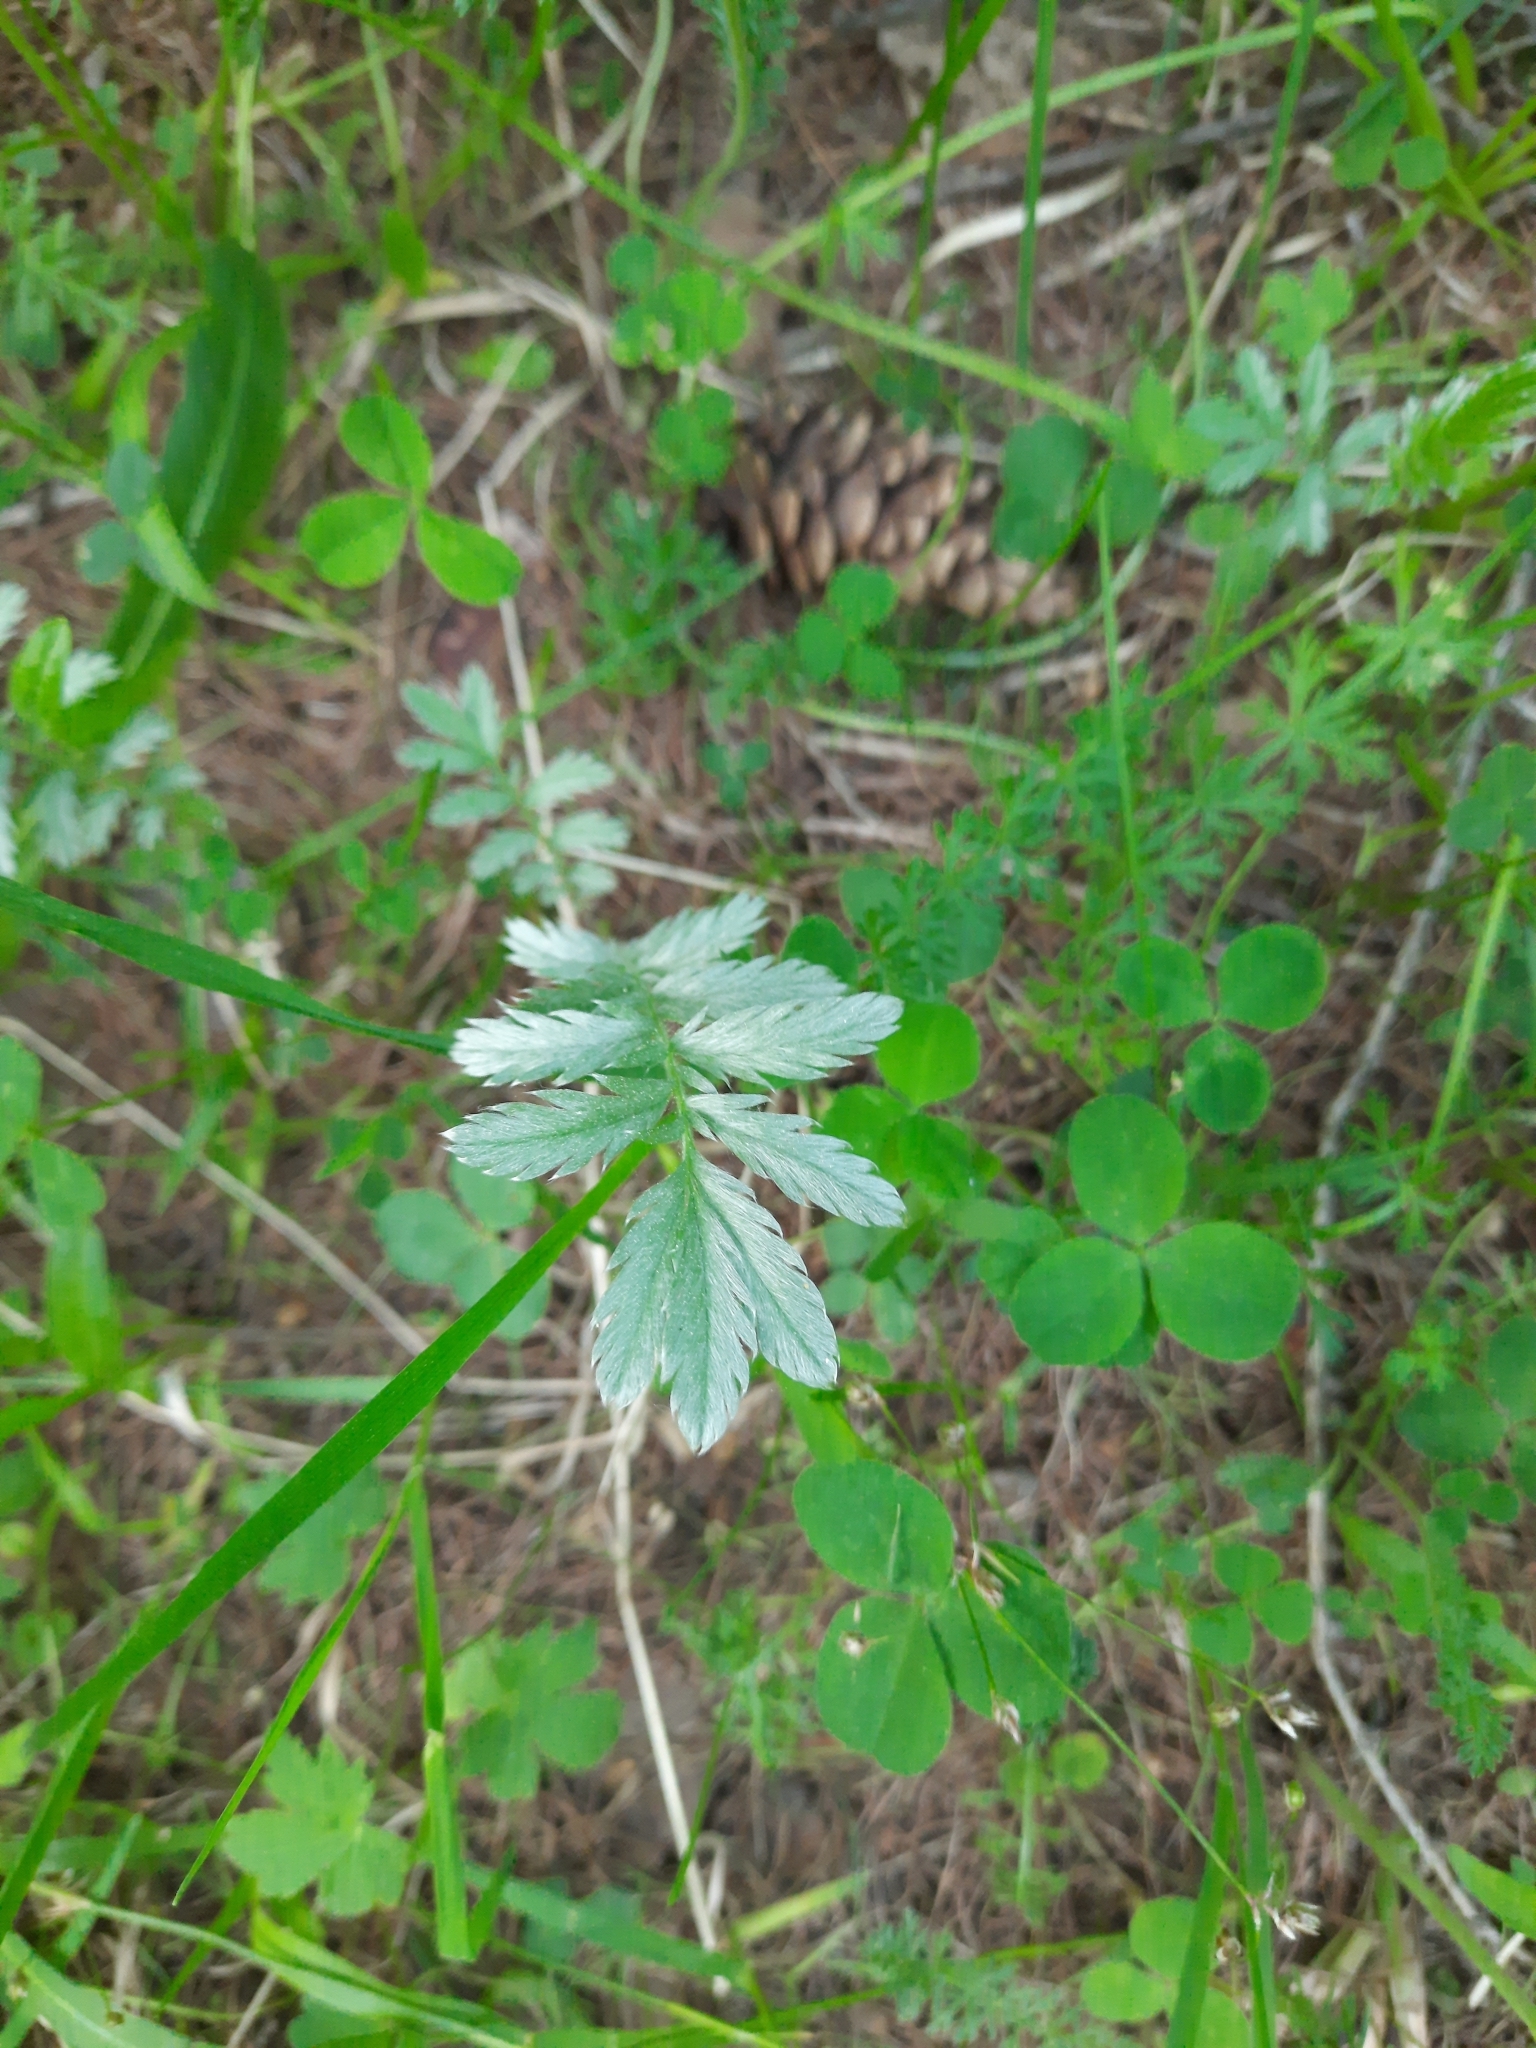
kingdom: Plantae
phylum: Tracheophyta
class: Magnoliopsida
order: Rosales
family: Rosaceae
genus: Argentina
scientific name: Argentina anserina
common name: Common silverweed
